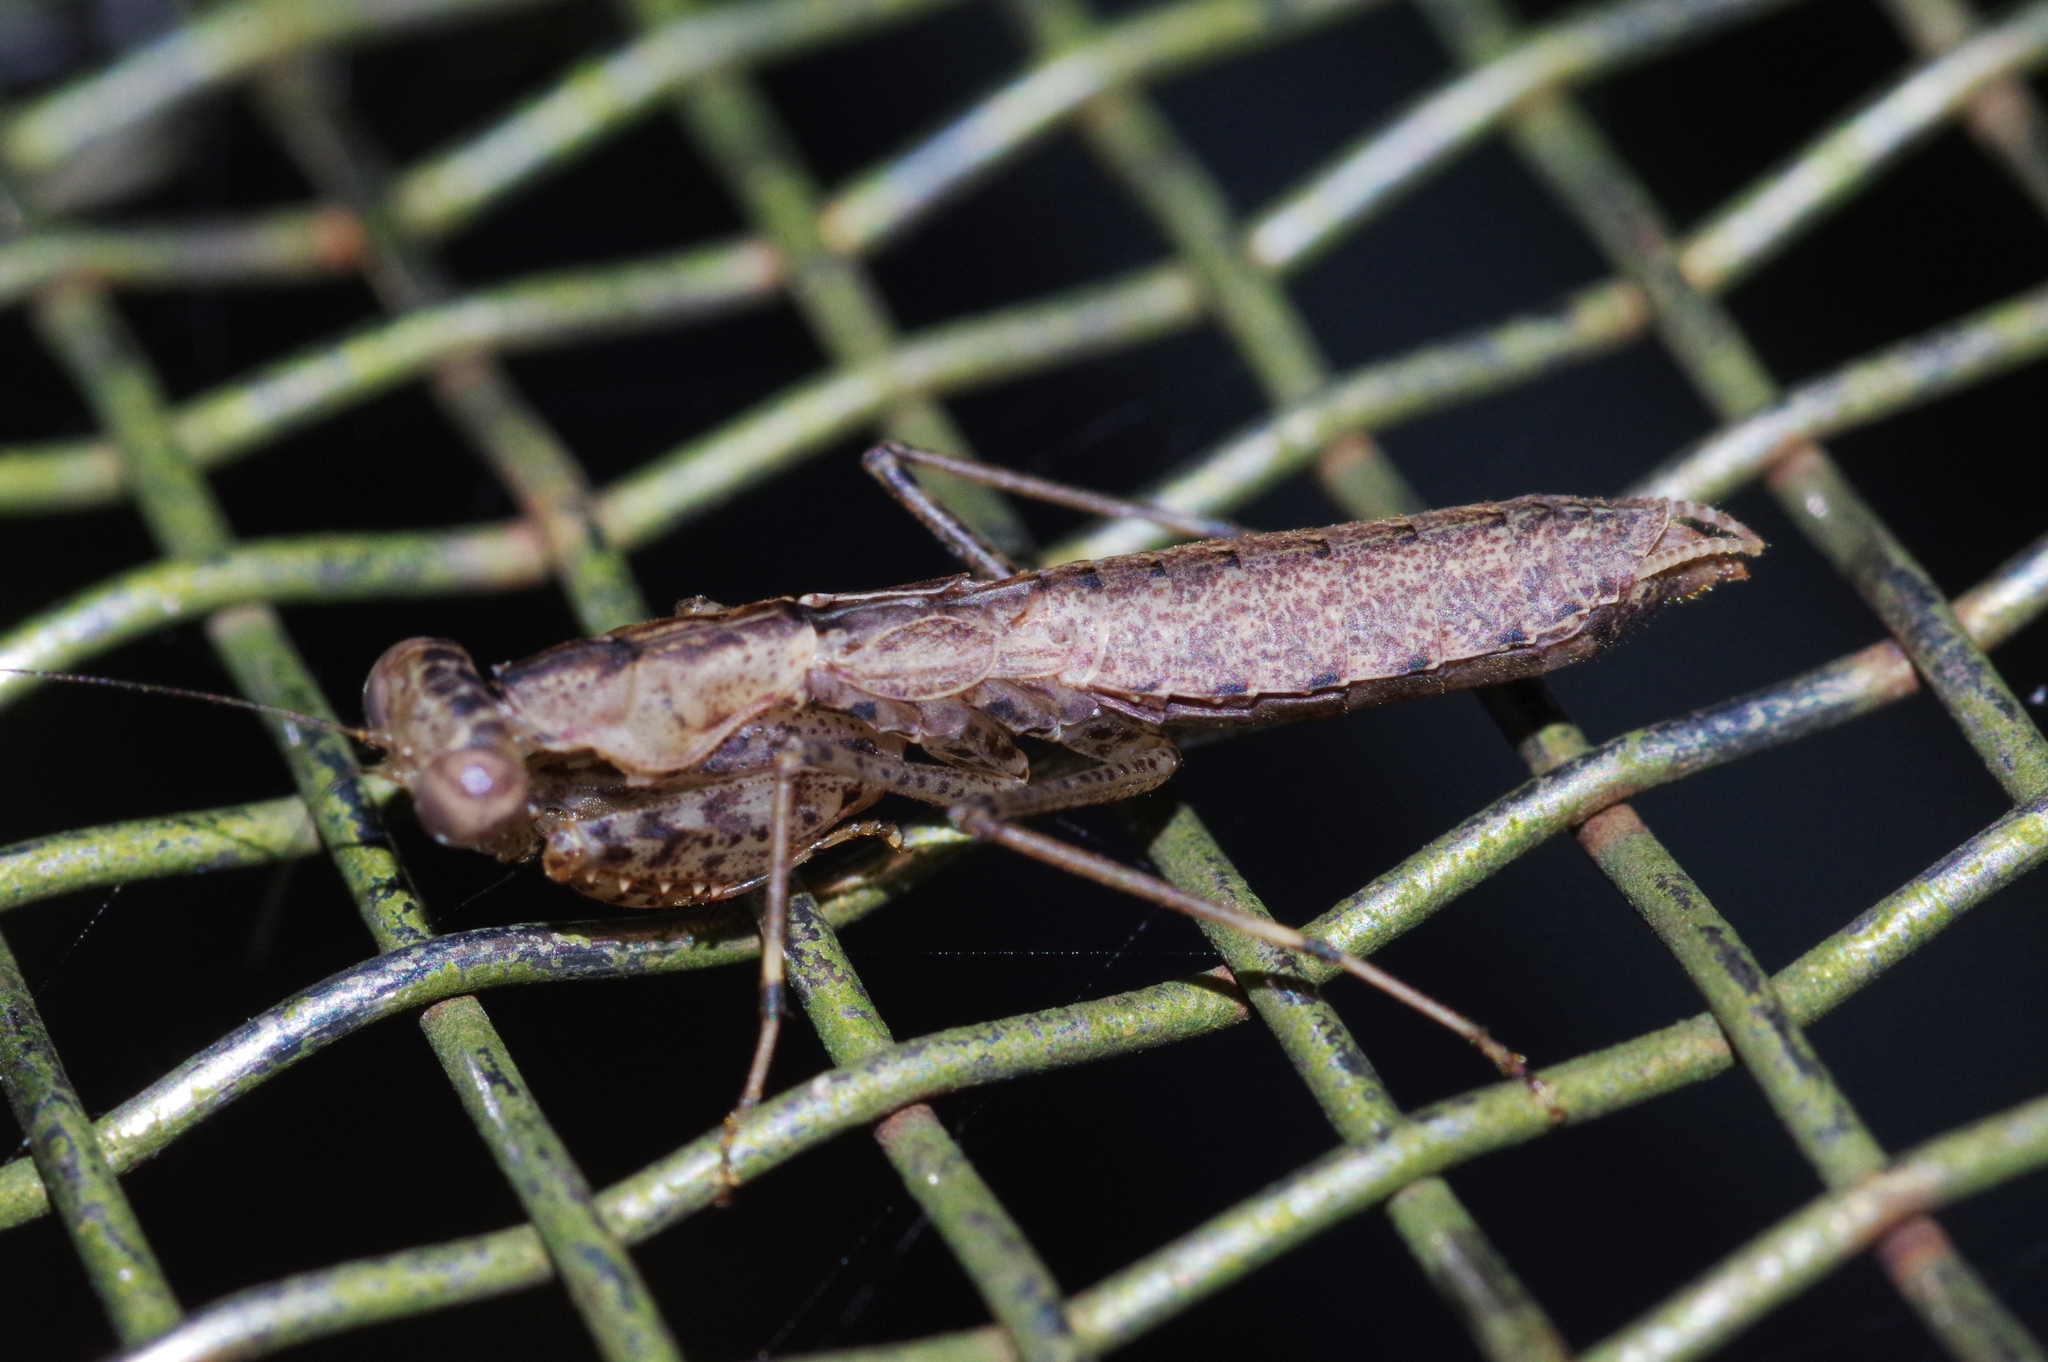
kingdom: Animalia
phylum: Arthropoda
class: Insecta
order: Mantodea
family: Gonypetidae
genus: Amantis
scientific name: Amantis nawai
